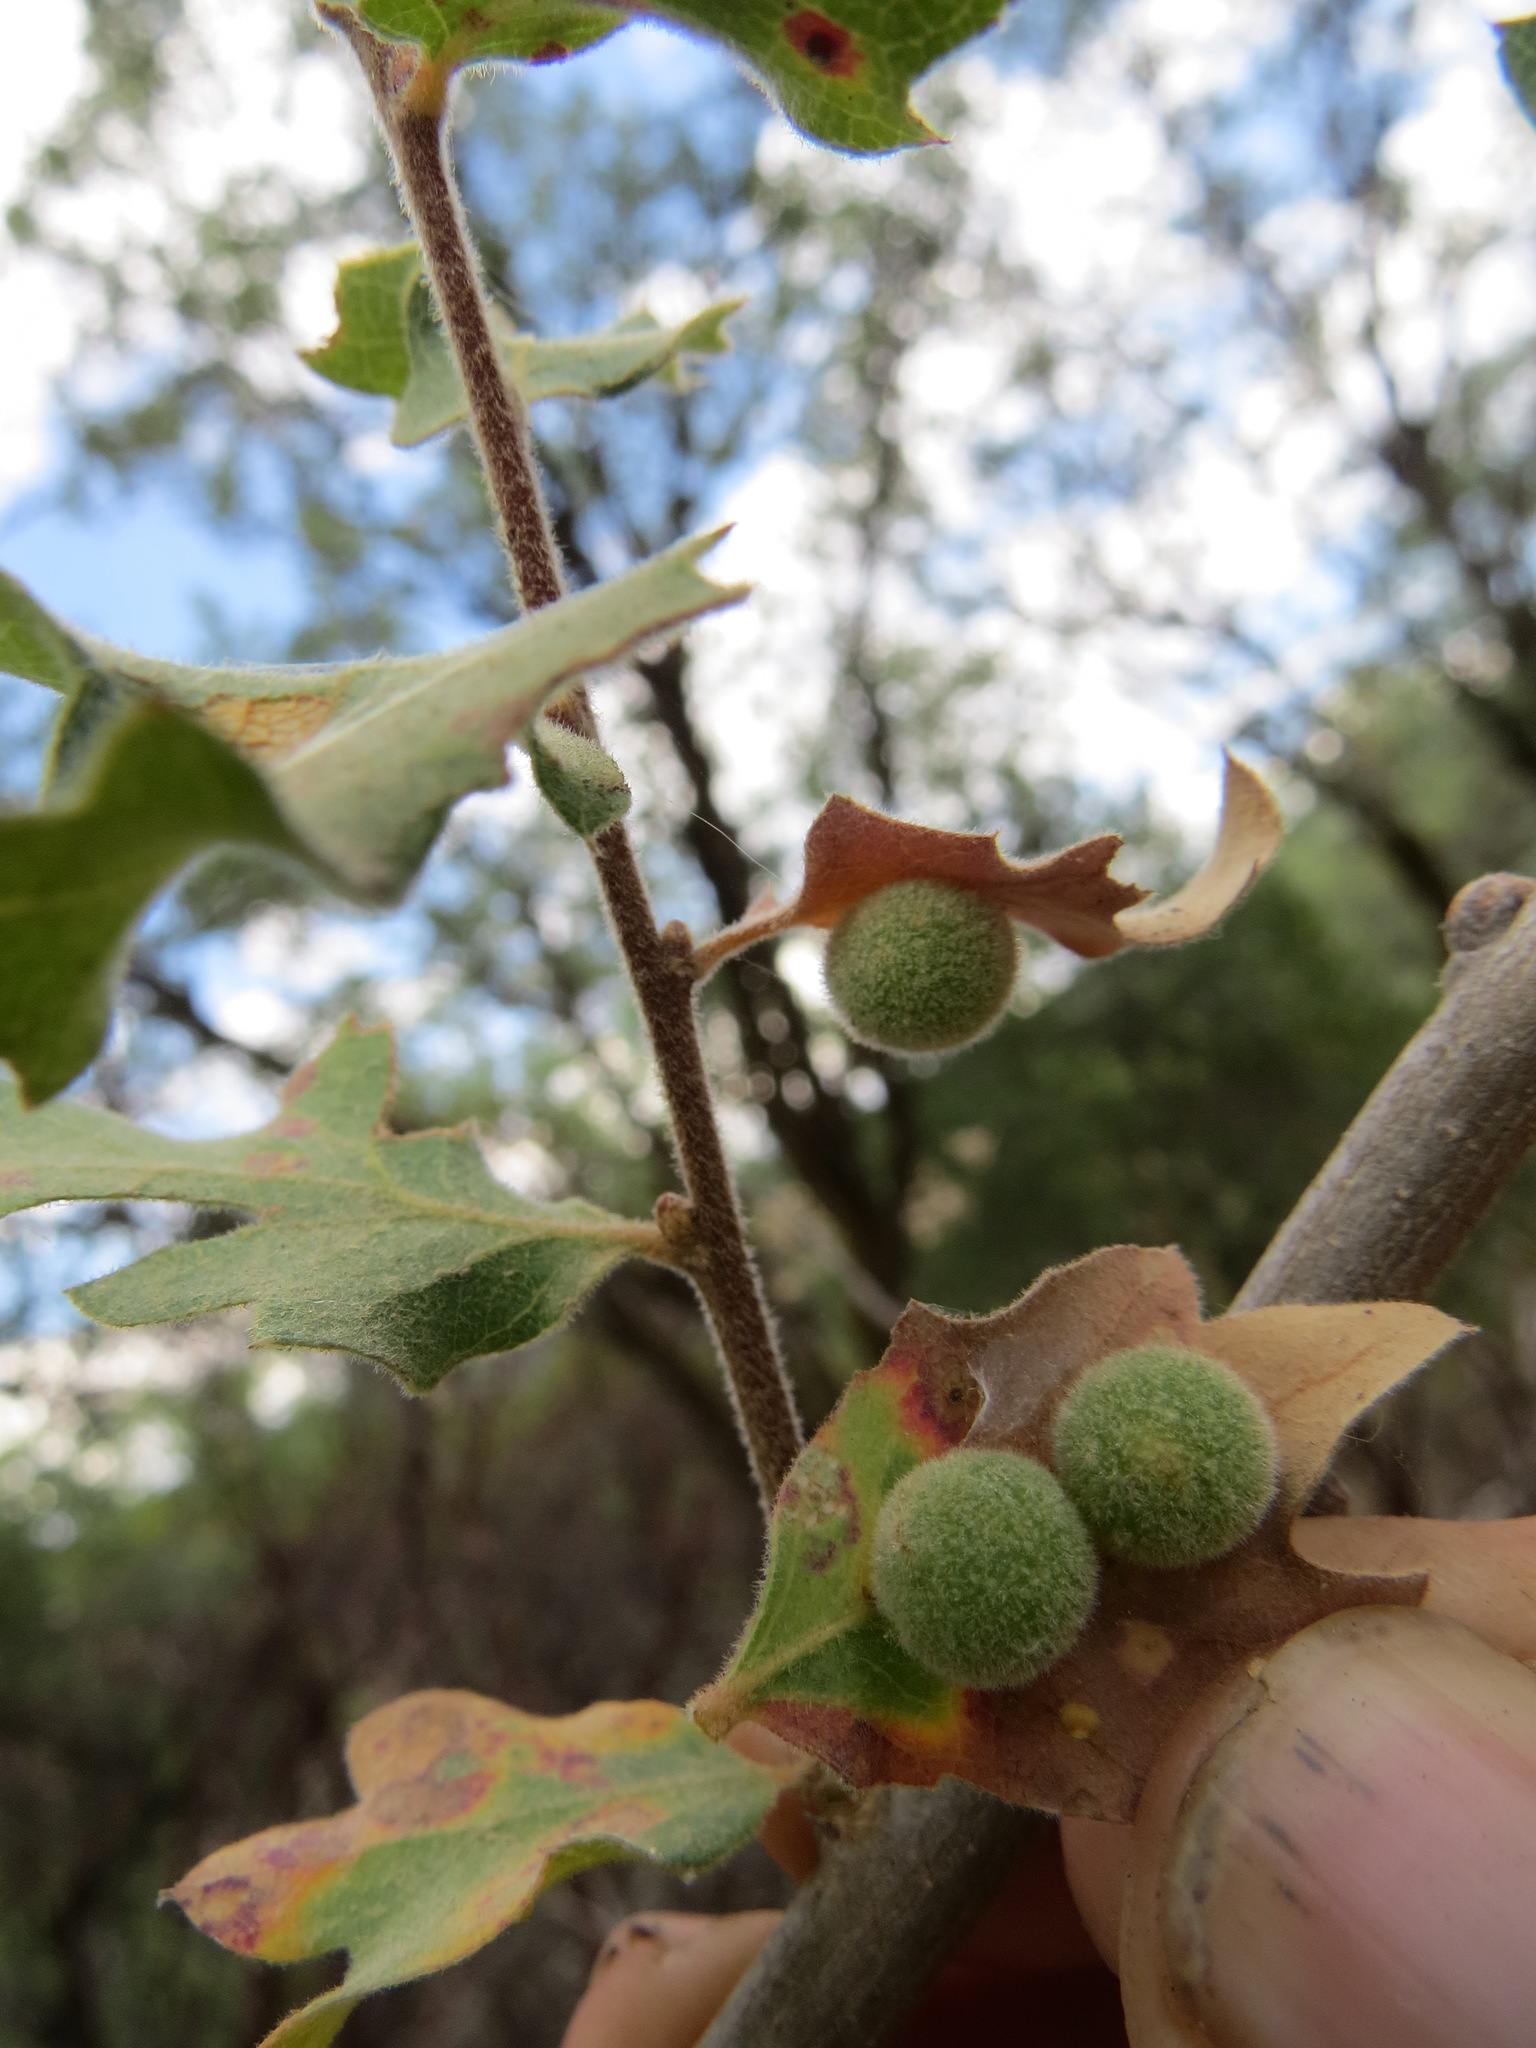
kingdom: Animalia
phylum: Arthropoda
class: Insecta
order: Hymenoptera
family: Cynipidae
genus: Cynips
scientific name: Cynips
